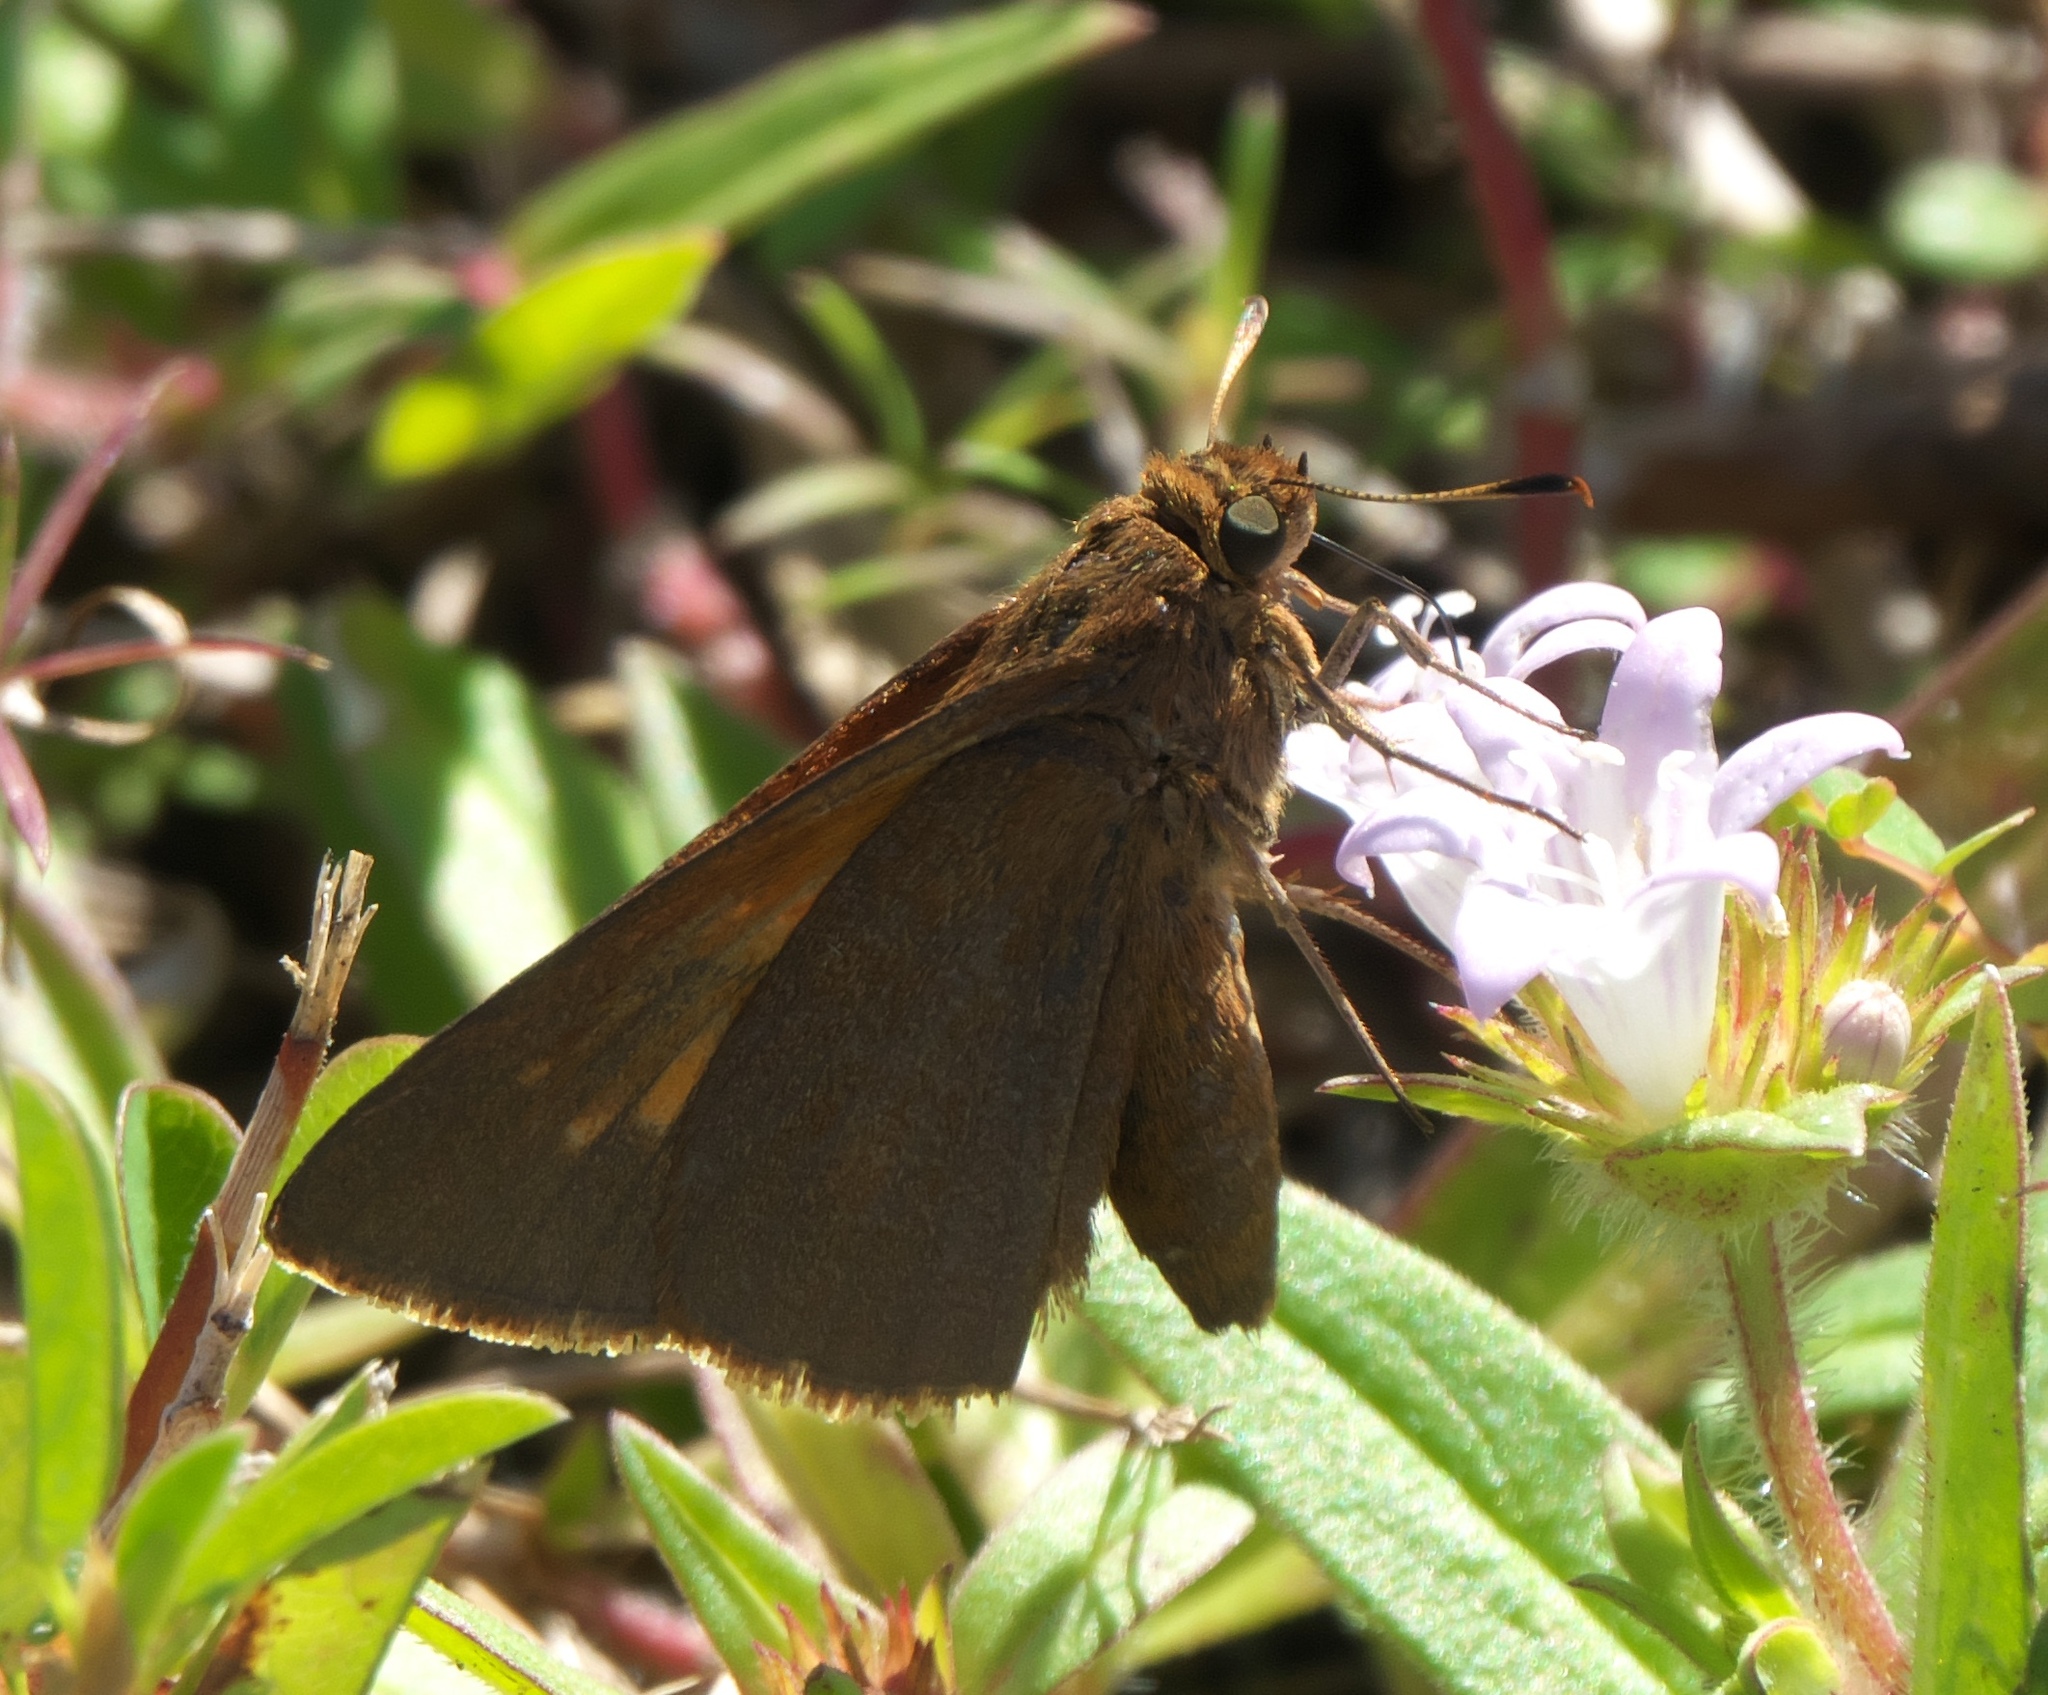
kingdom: Animalia
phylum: Arthropoda
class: Insecta
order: Lepidoptera
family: Hesperiidae
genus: Euphyes
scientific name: Euphyes pilatka
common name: Palatka skipper
